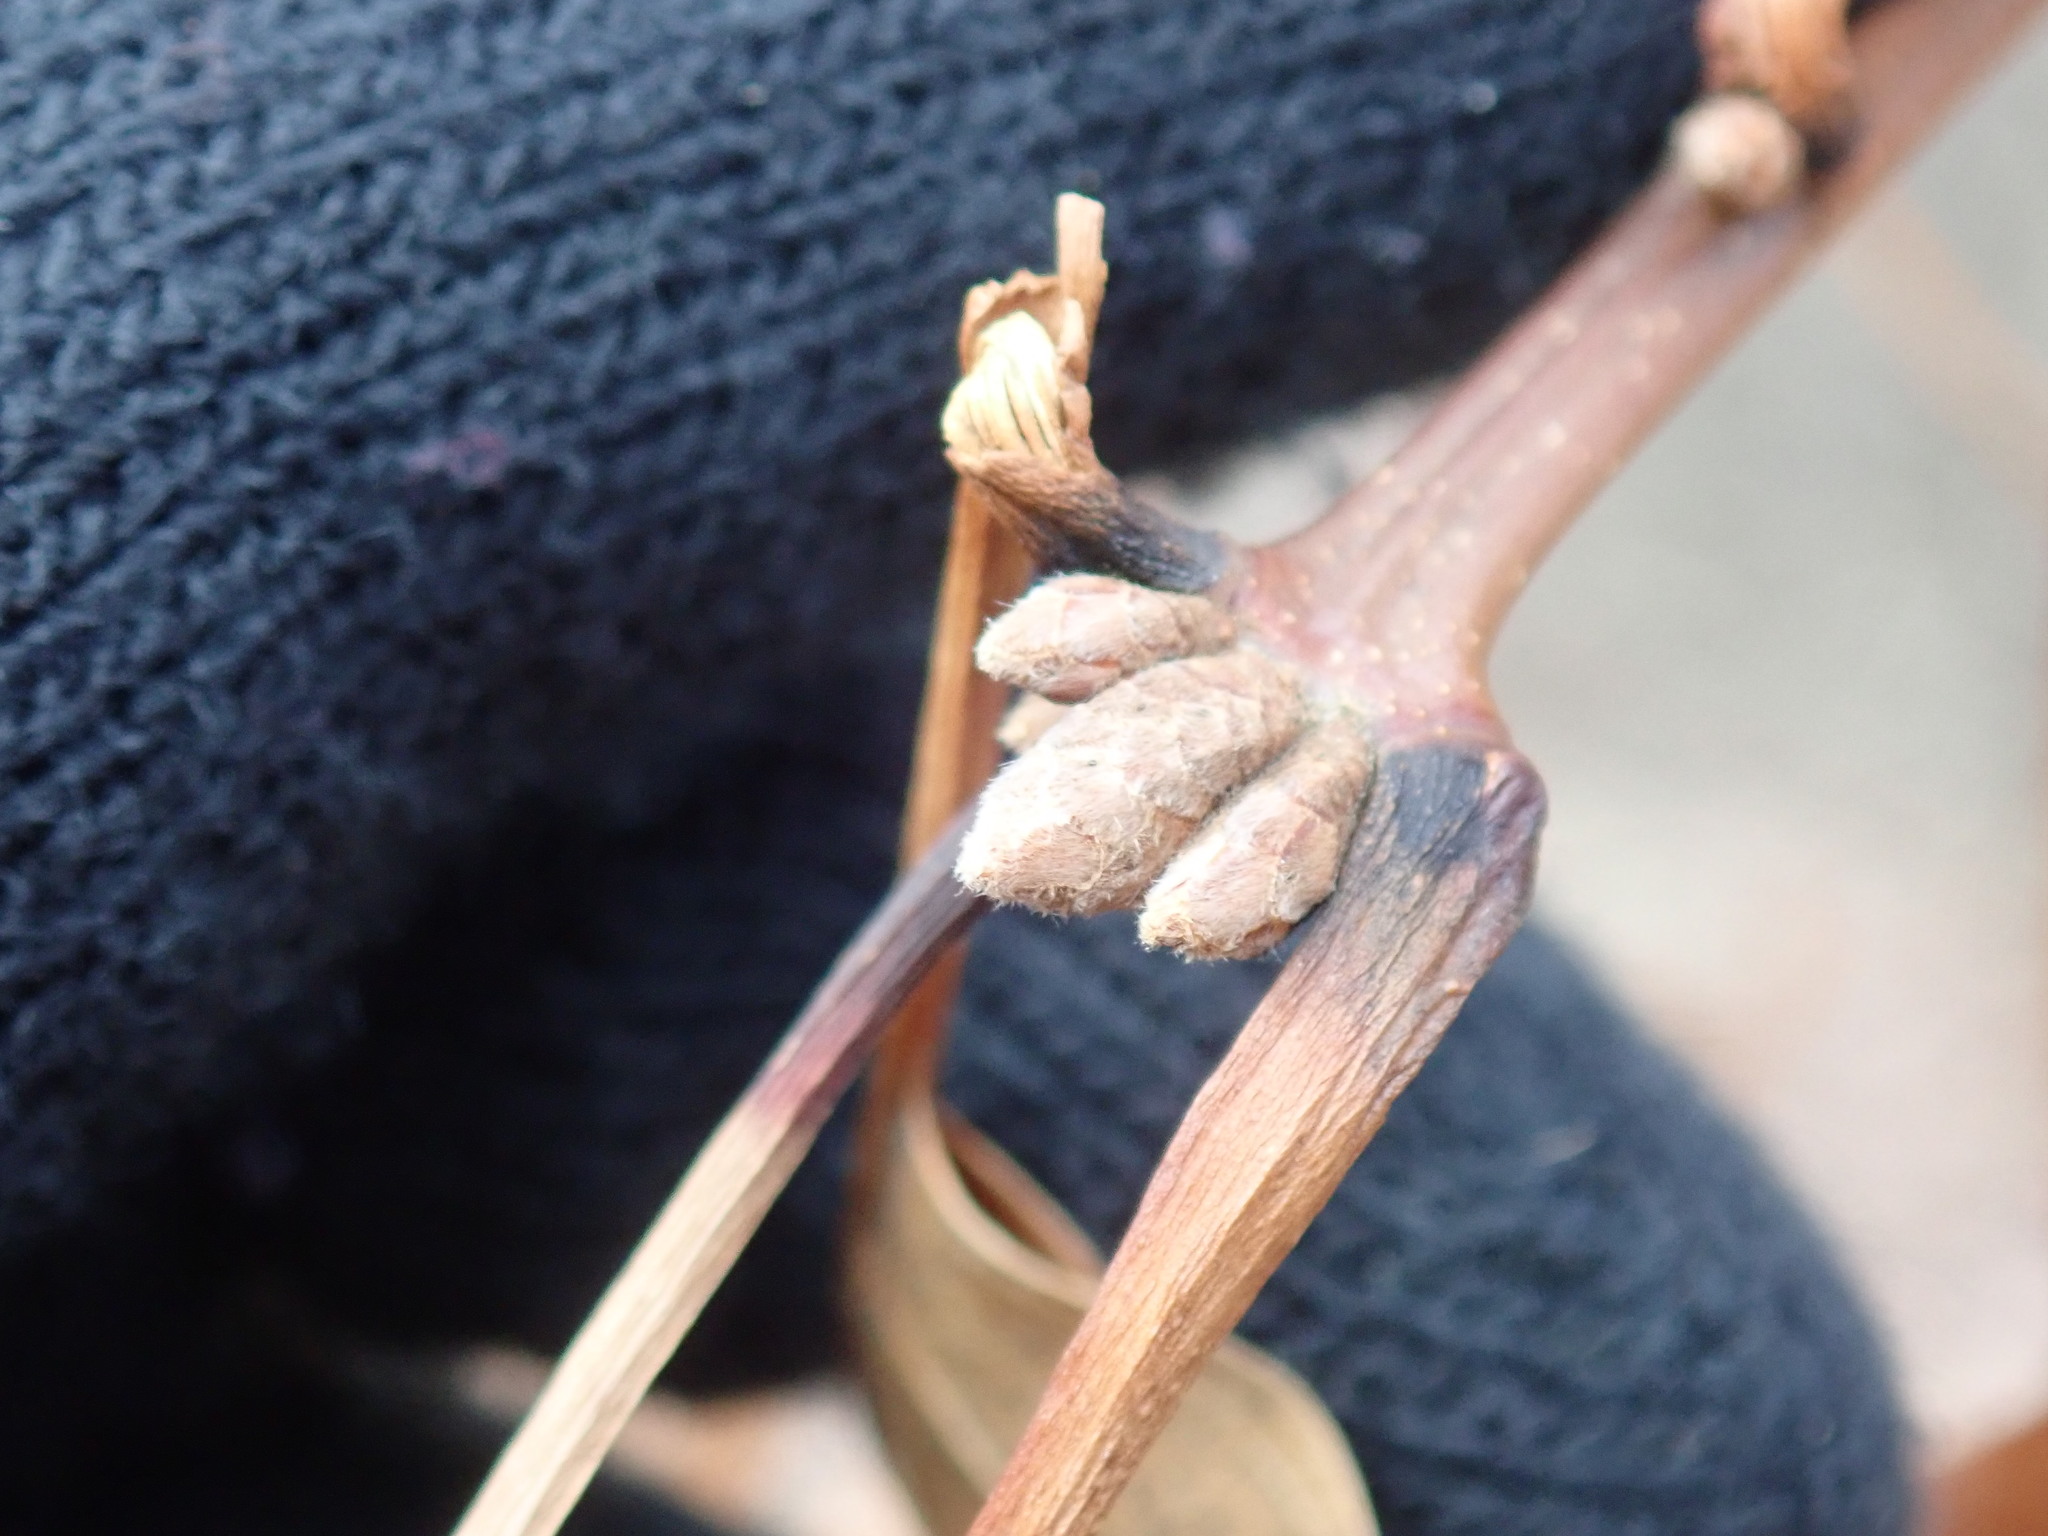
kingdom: Plantae
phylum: Tracheophyta
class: Magnoliopsida
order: Fagales
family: Fagaceae
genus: Quercus
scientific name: Quercus velutina
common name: Black oak
